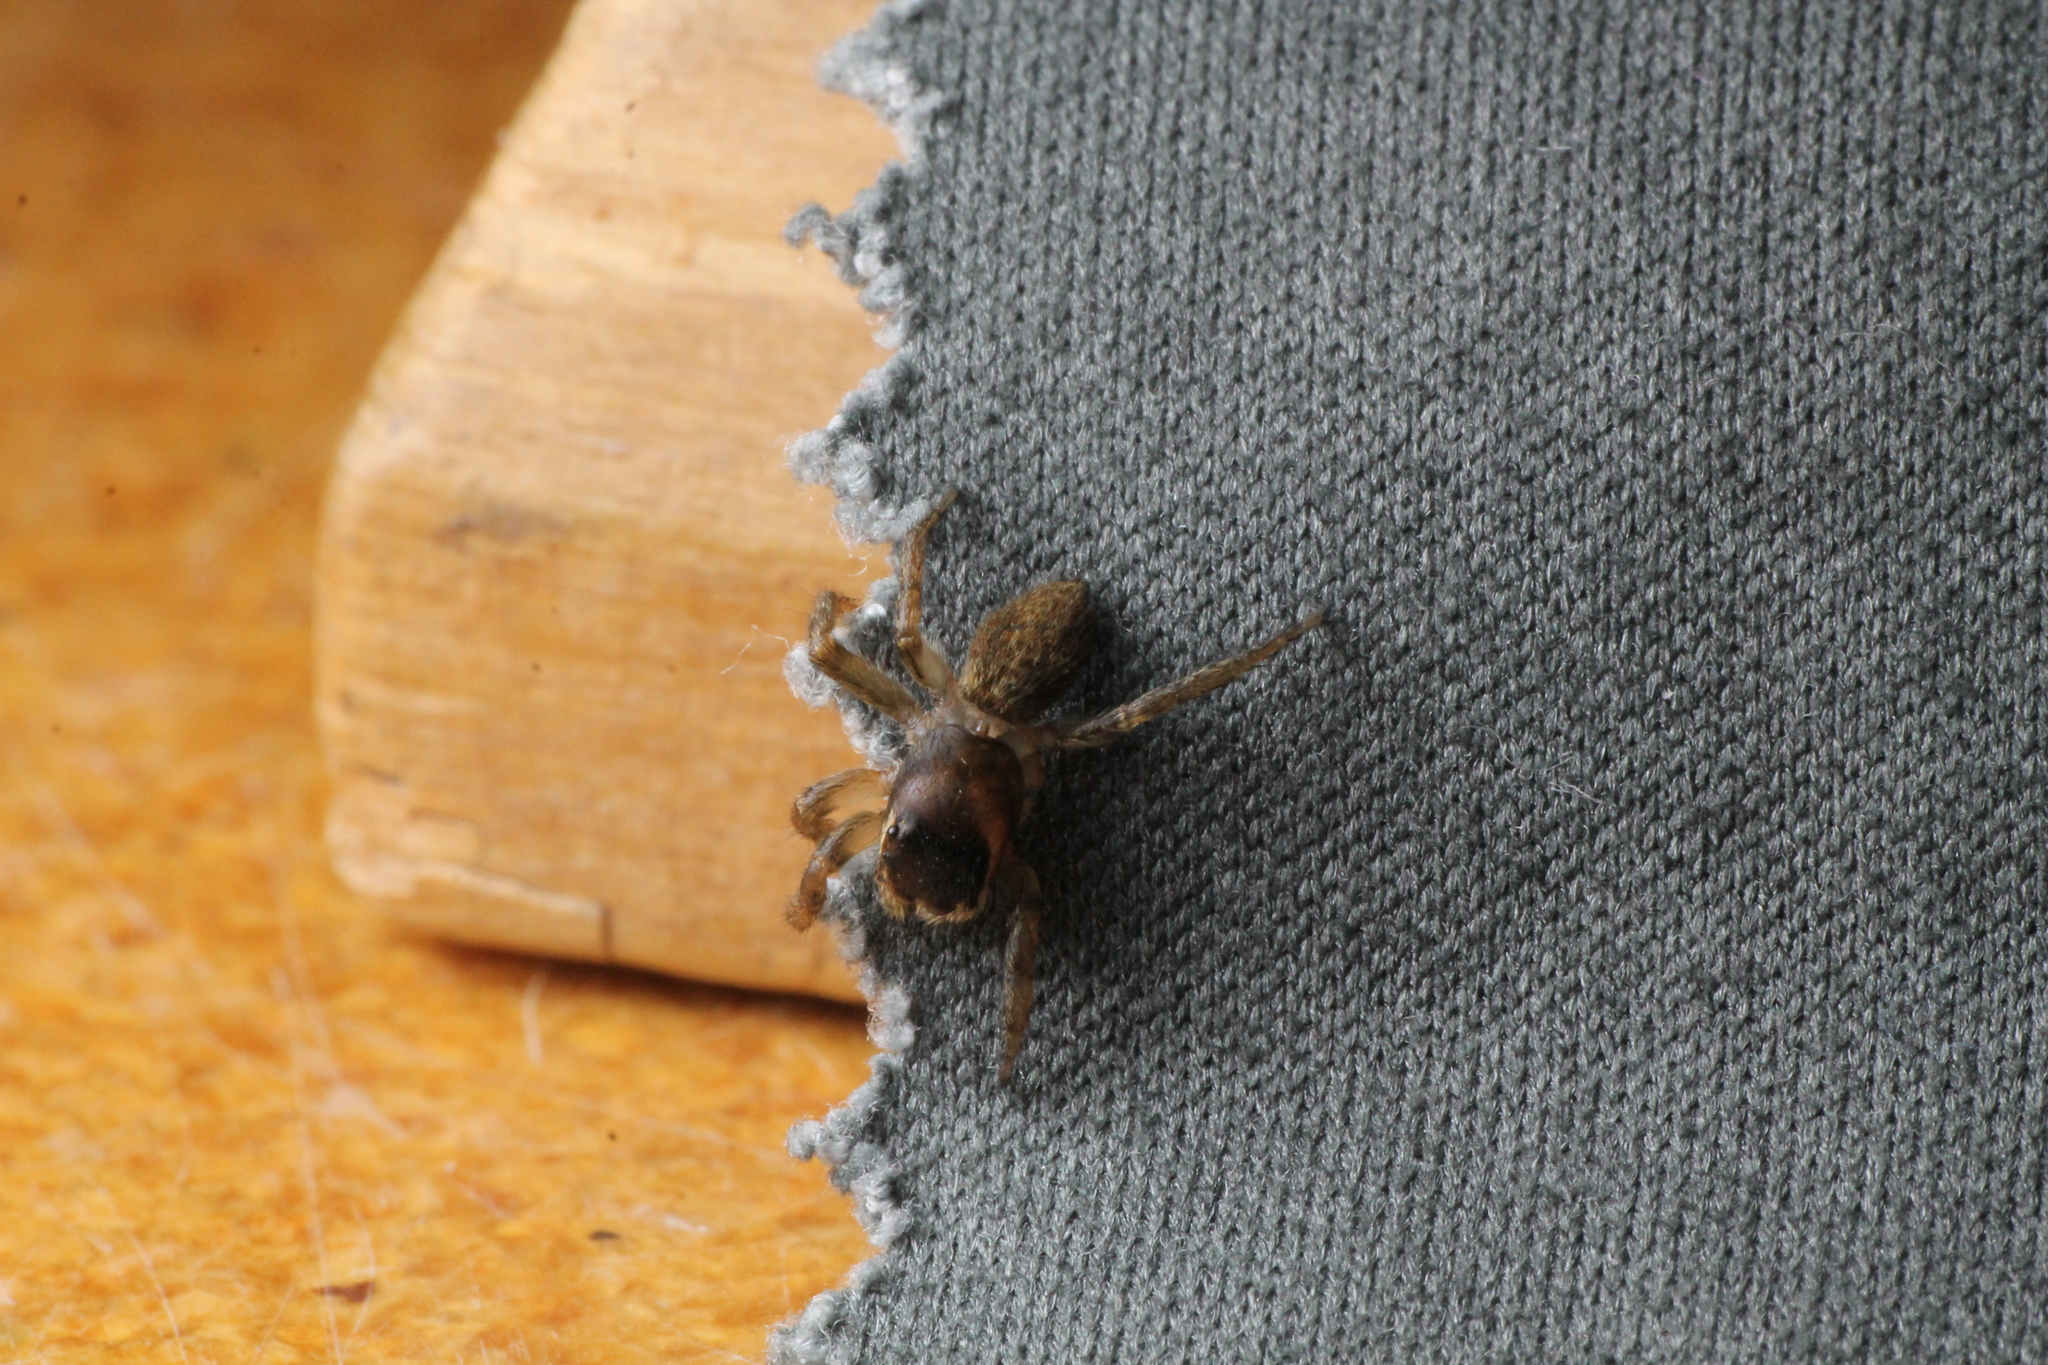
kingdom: Animalia
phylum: Arthropoda
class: Arachnida
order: Araneae
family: Salticidae
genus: Maratus
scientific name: Maratus griseus
